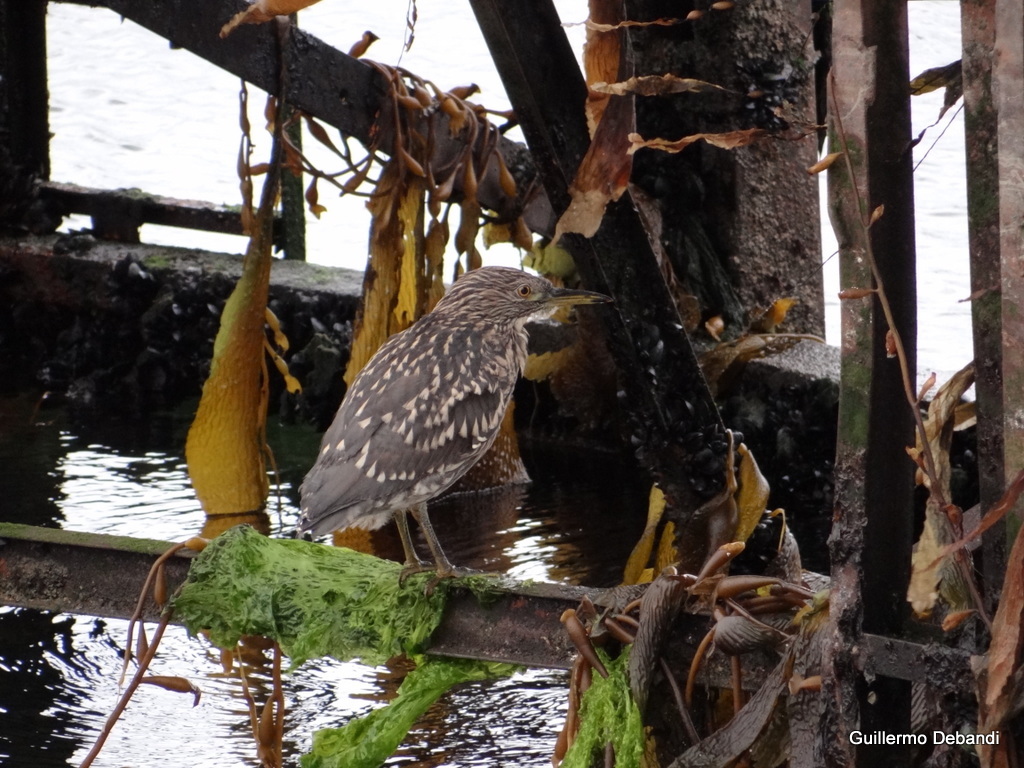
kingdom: Animalia
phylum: Chordata
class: Aves
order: Pelecaniformes
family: Ardeidae
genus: Nycticorax
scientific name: Nycticorax nycticorax
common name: Black-crowned night heron
